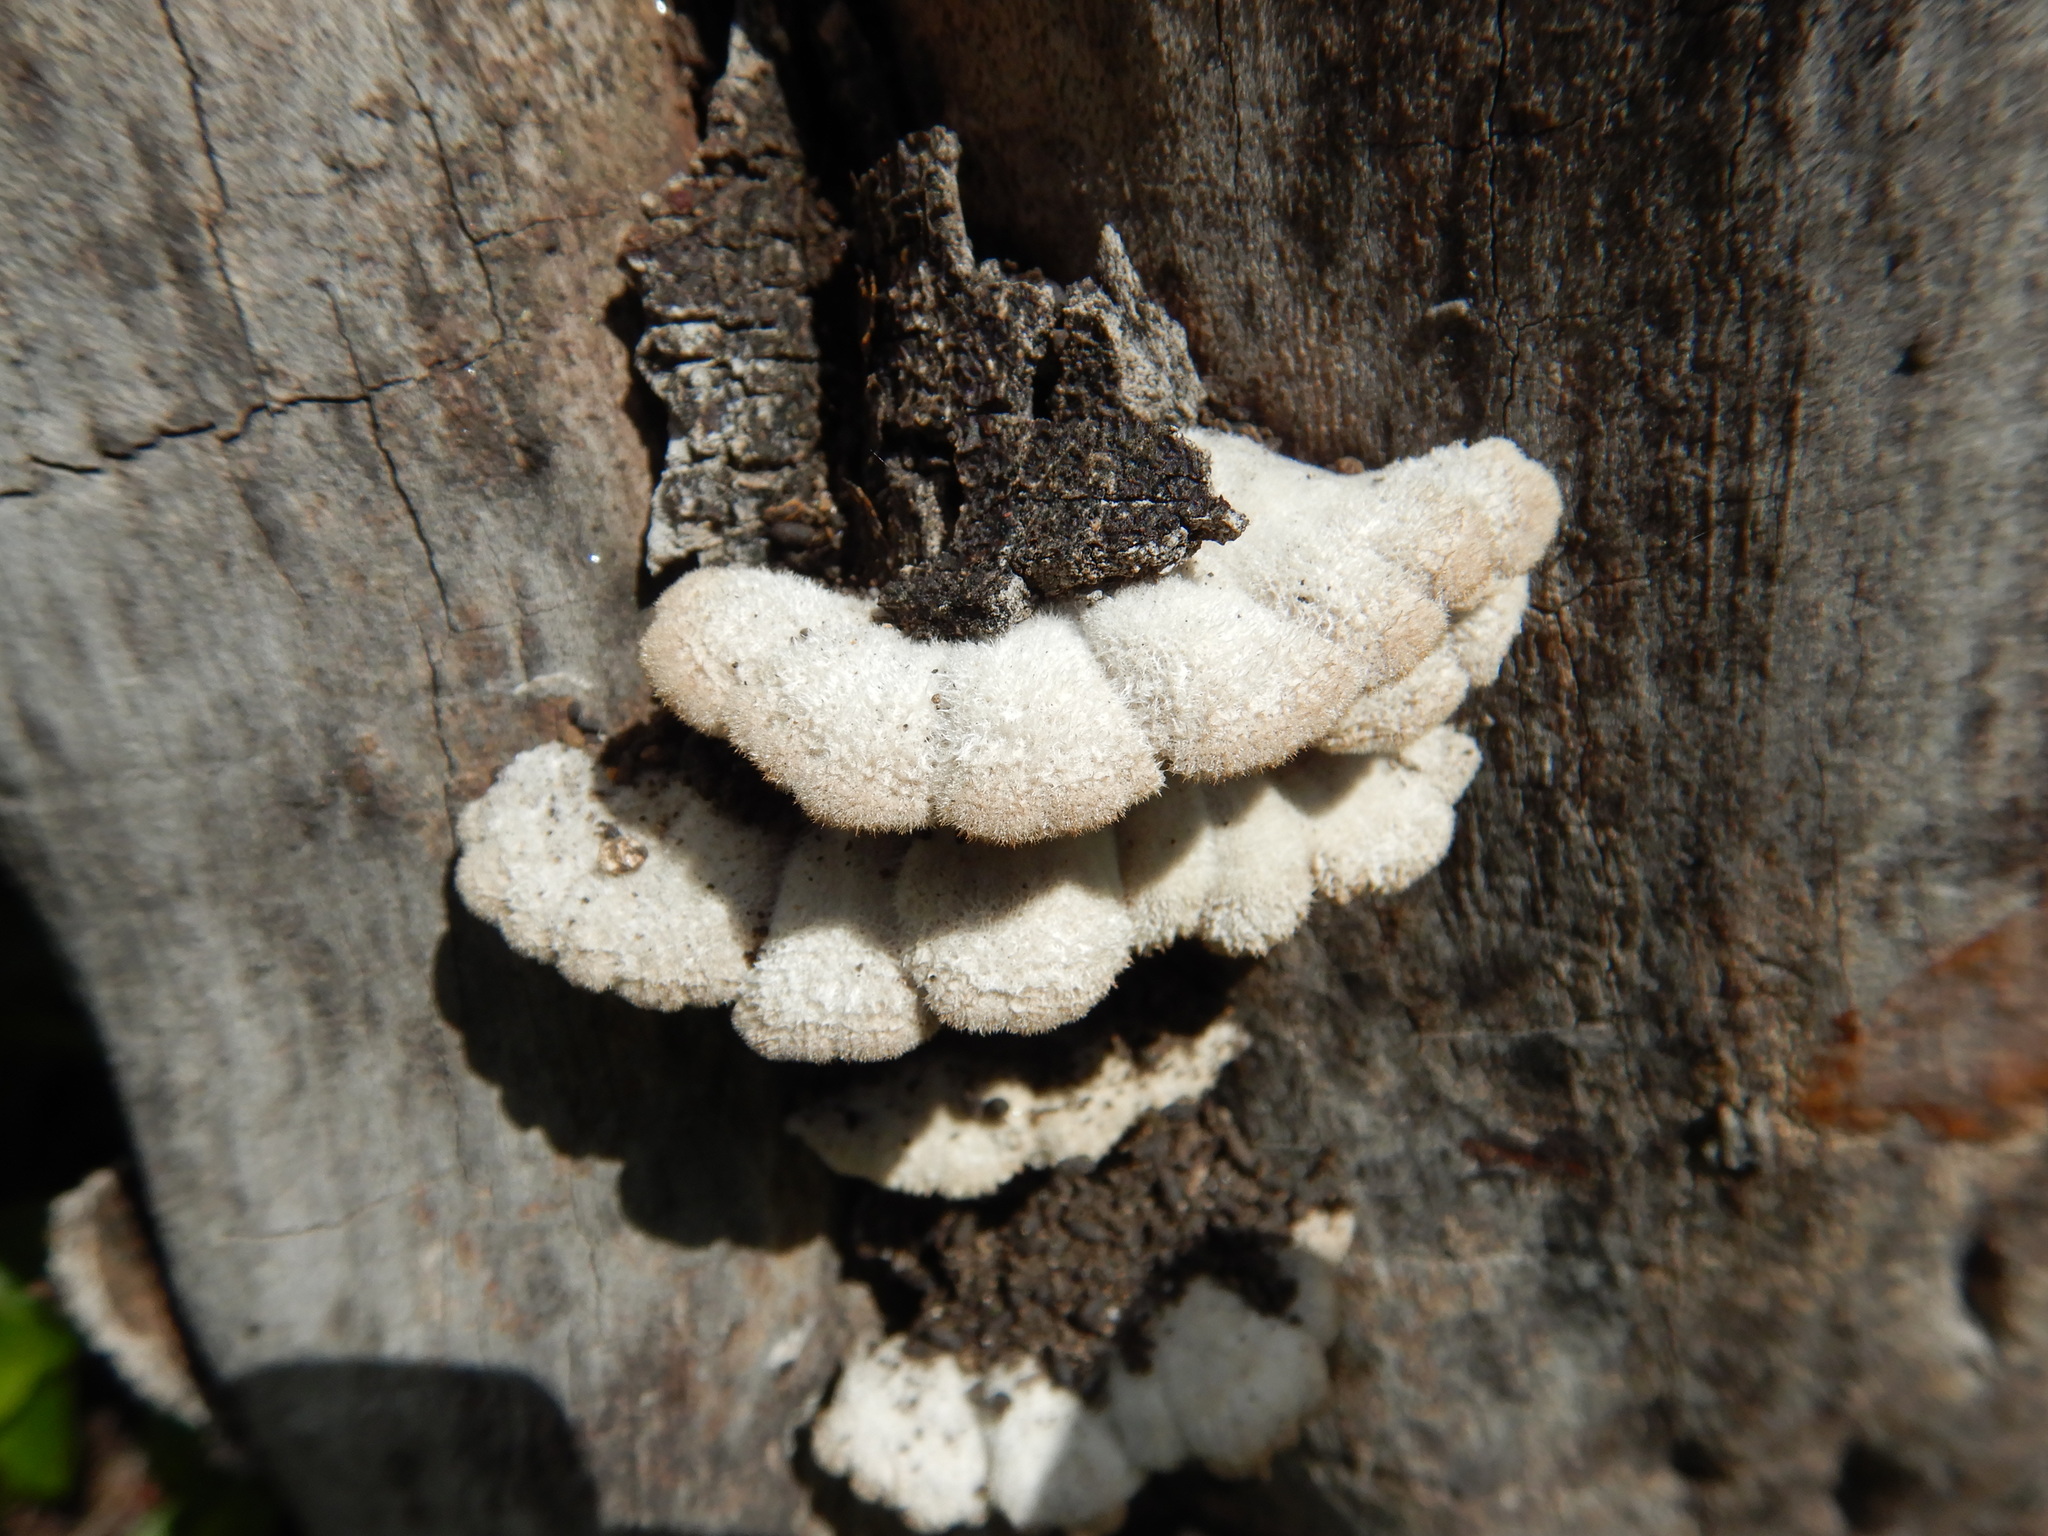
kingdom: Fungi
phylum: Basidiomycota
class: Agaricomycetes
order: Agaricales
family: Schizophyllaceae
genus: Schizophyllum
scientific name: Schizophyllum commune
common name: Common porecrust
